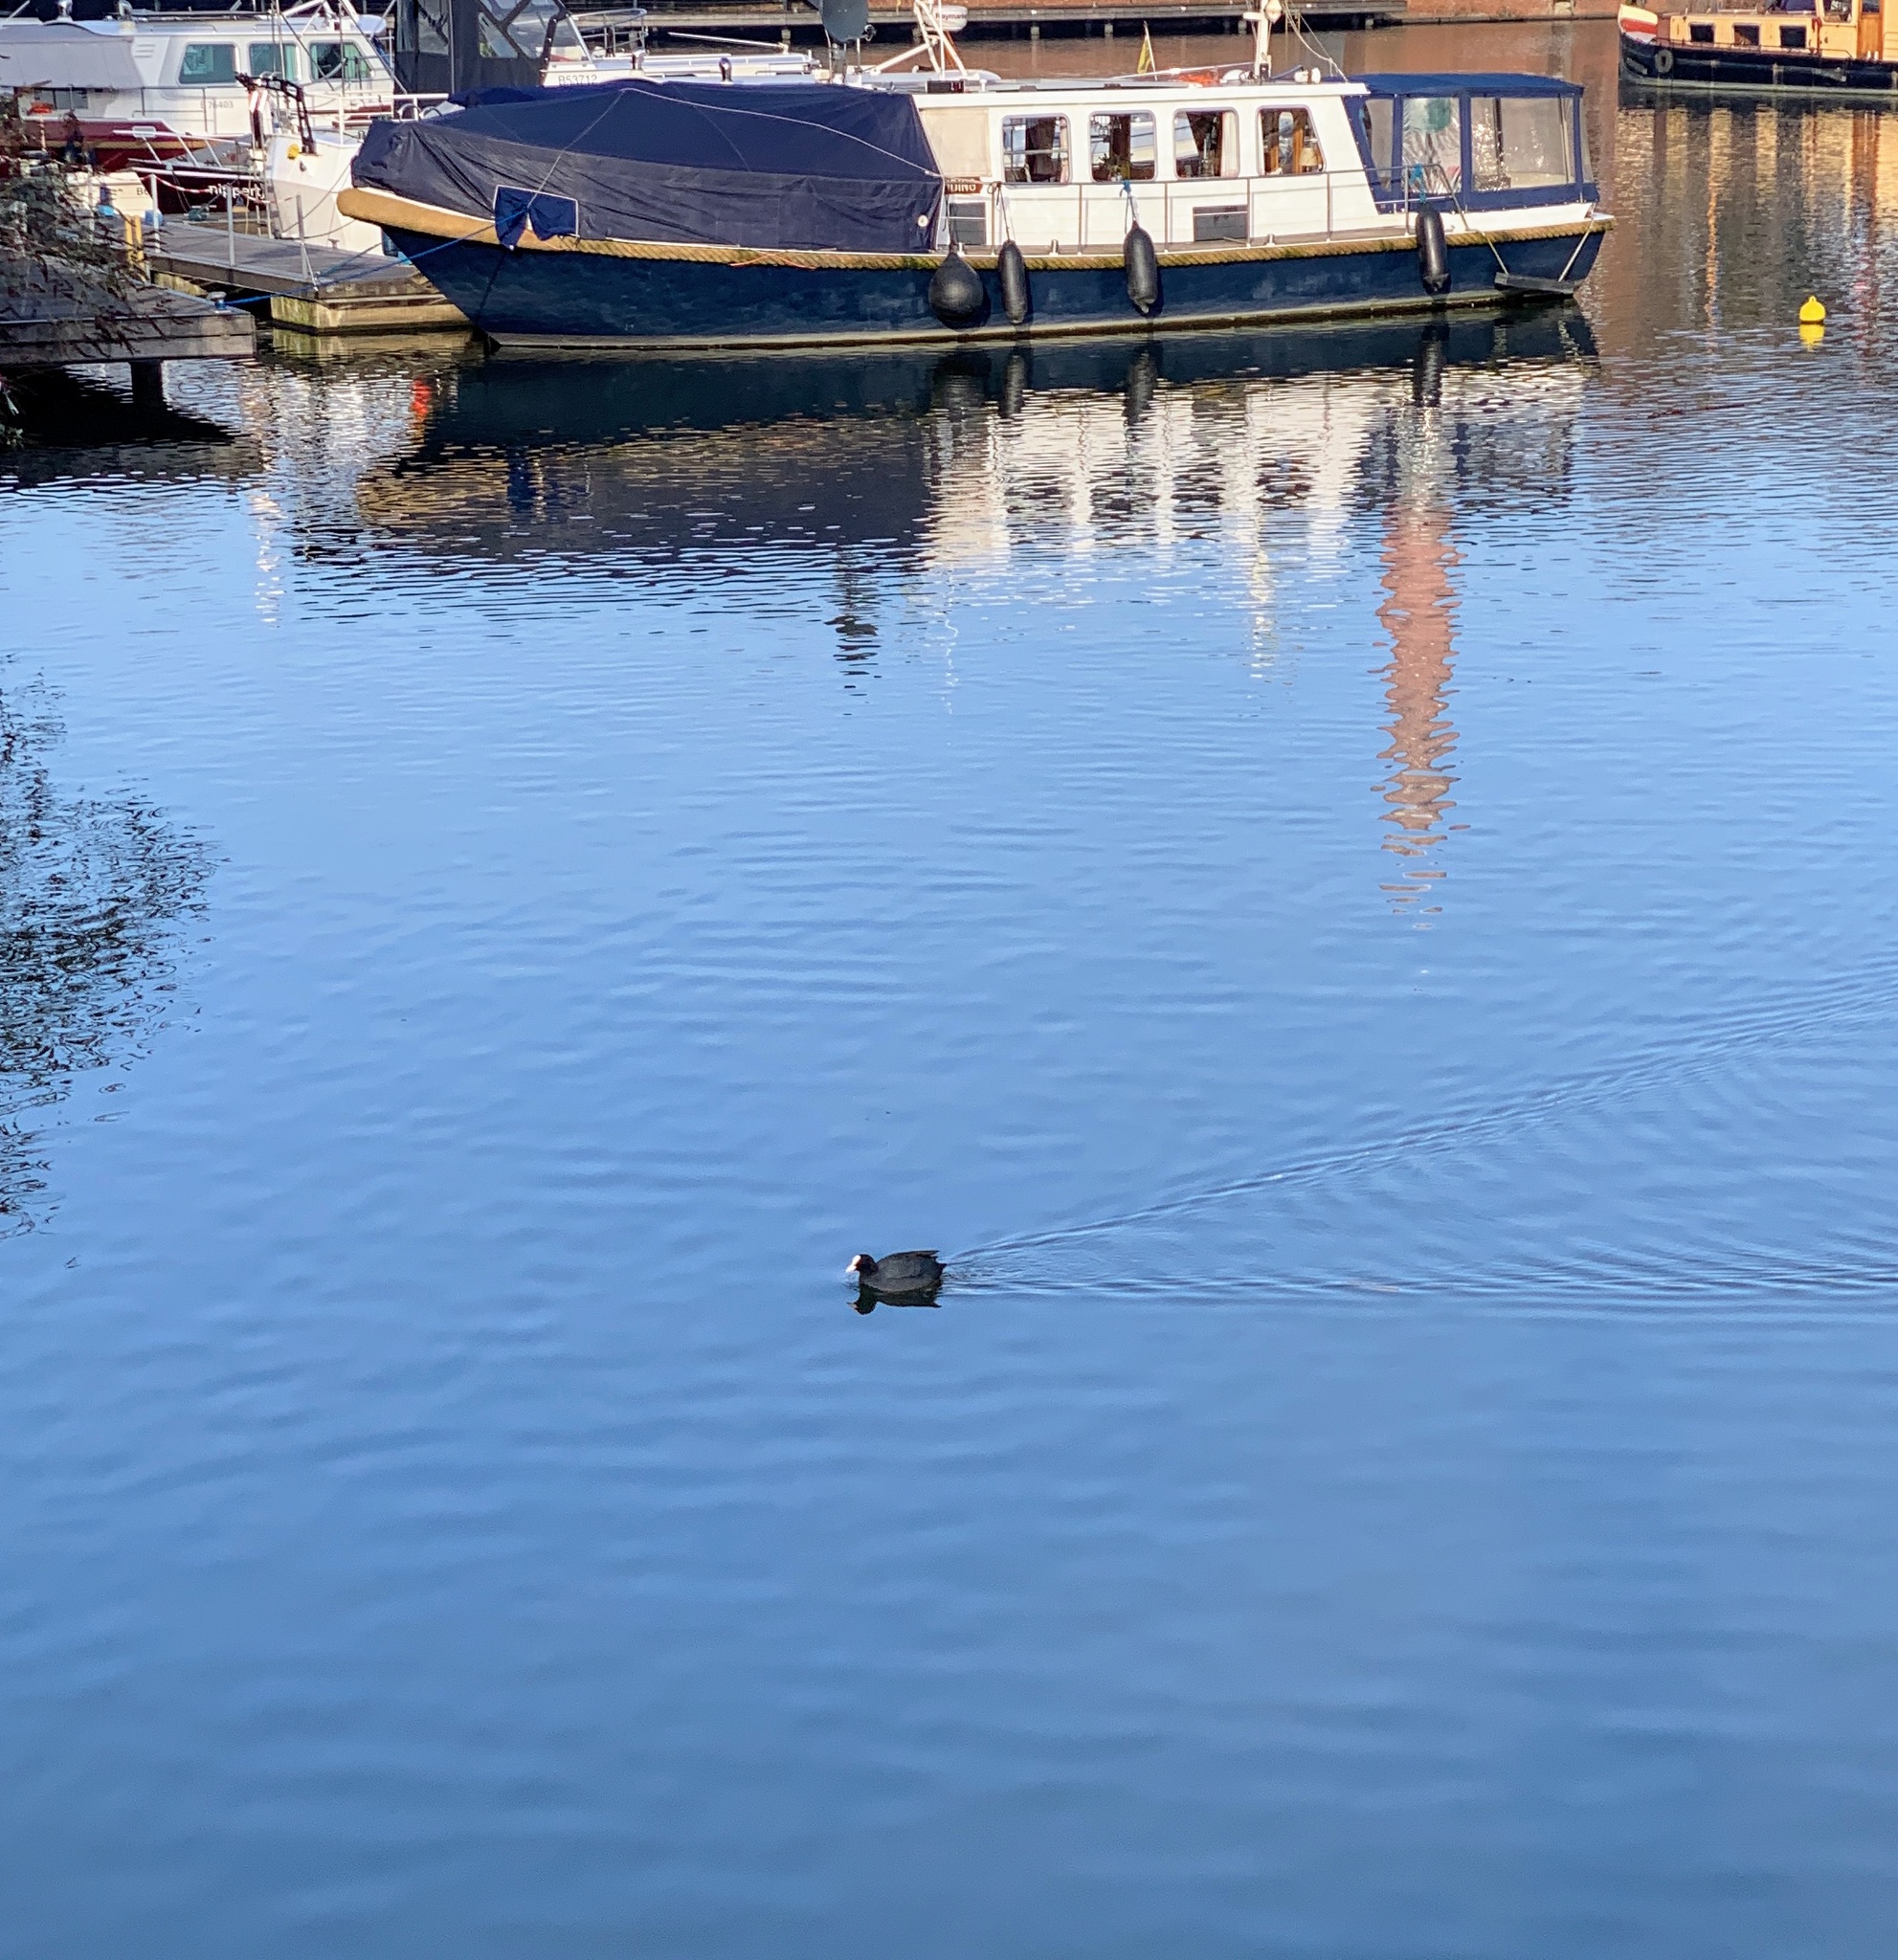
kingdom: Animalia
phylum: Chordata
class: Aves
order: Gruiformes
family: Rallidae
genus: Fulica
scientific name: Fulica atra
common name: Eurasian coot
